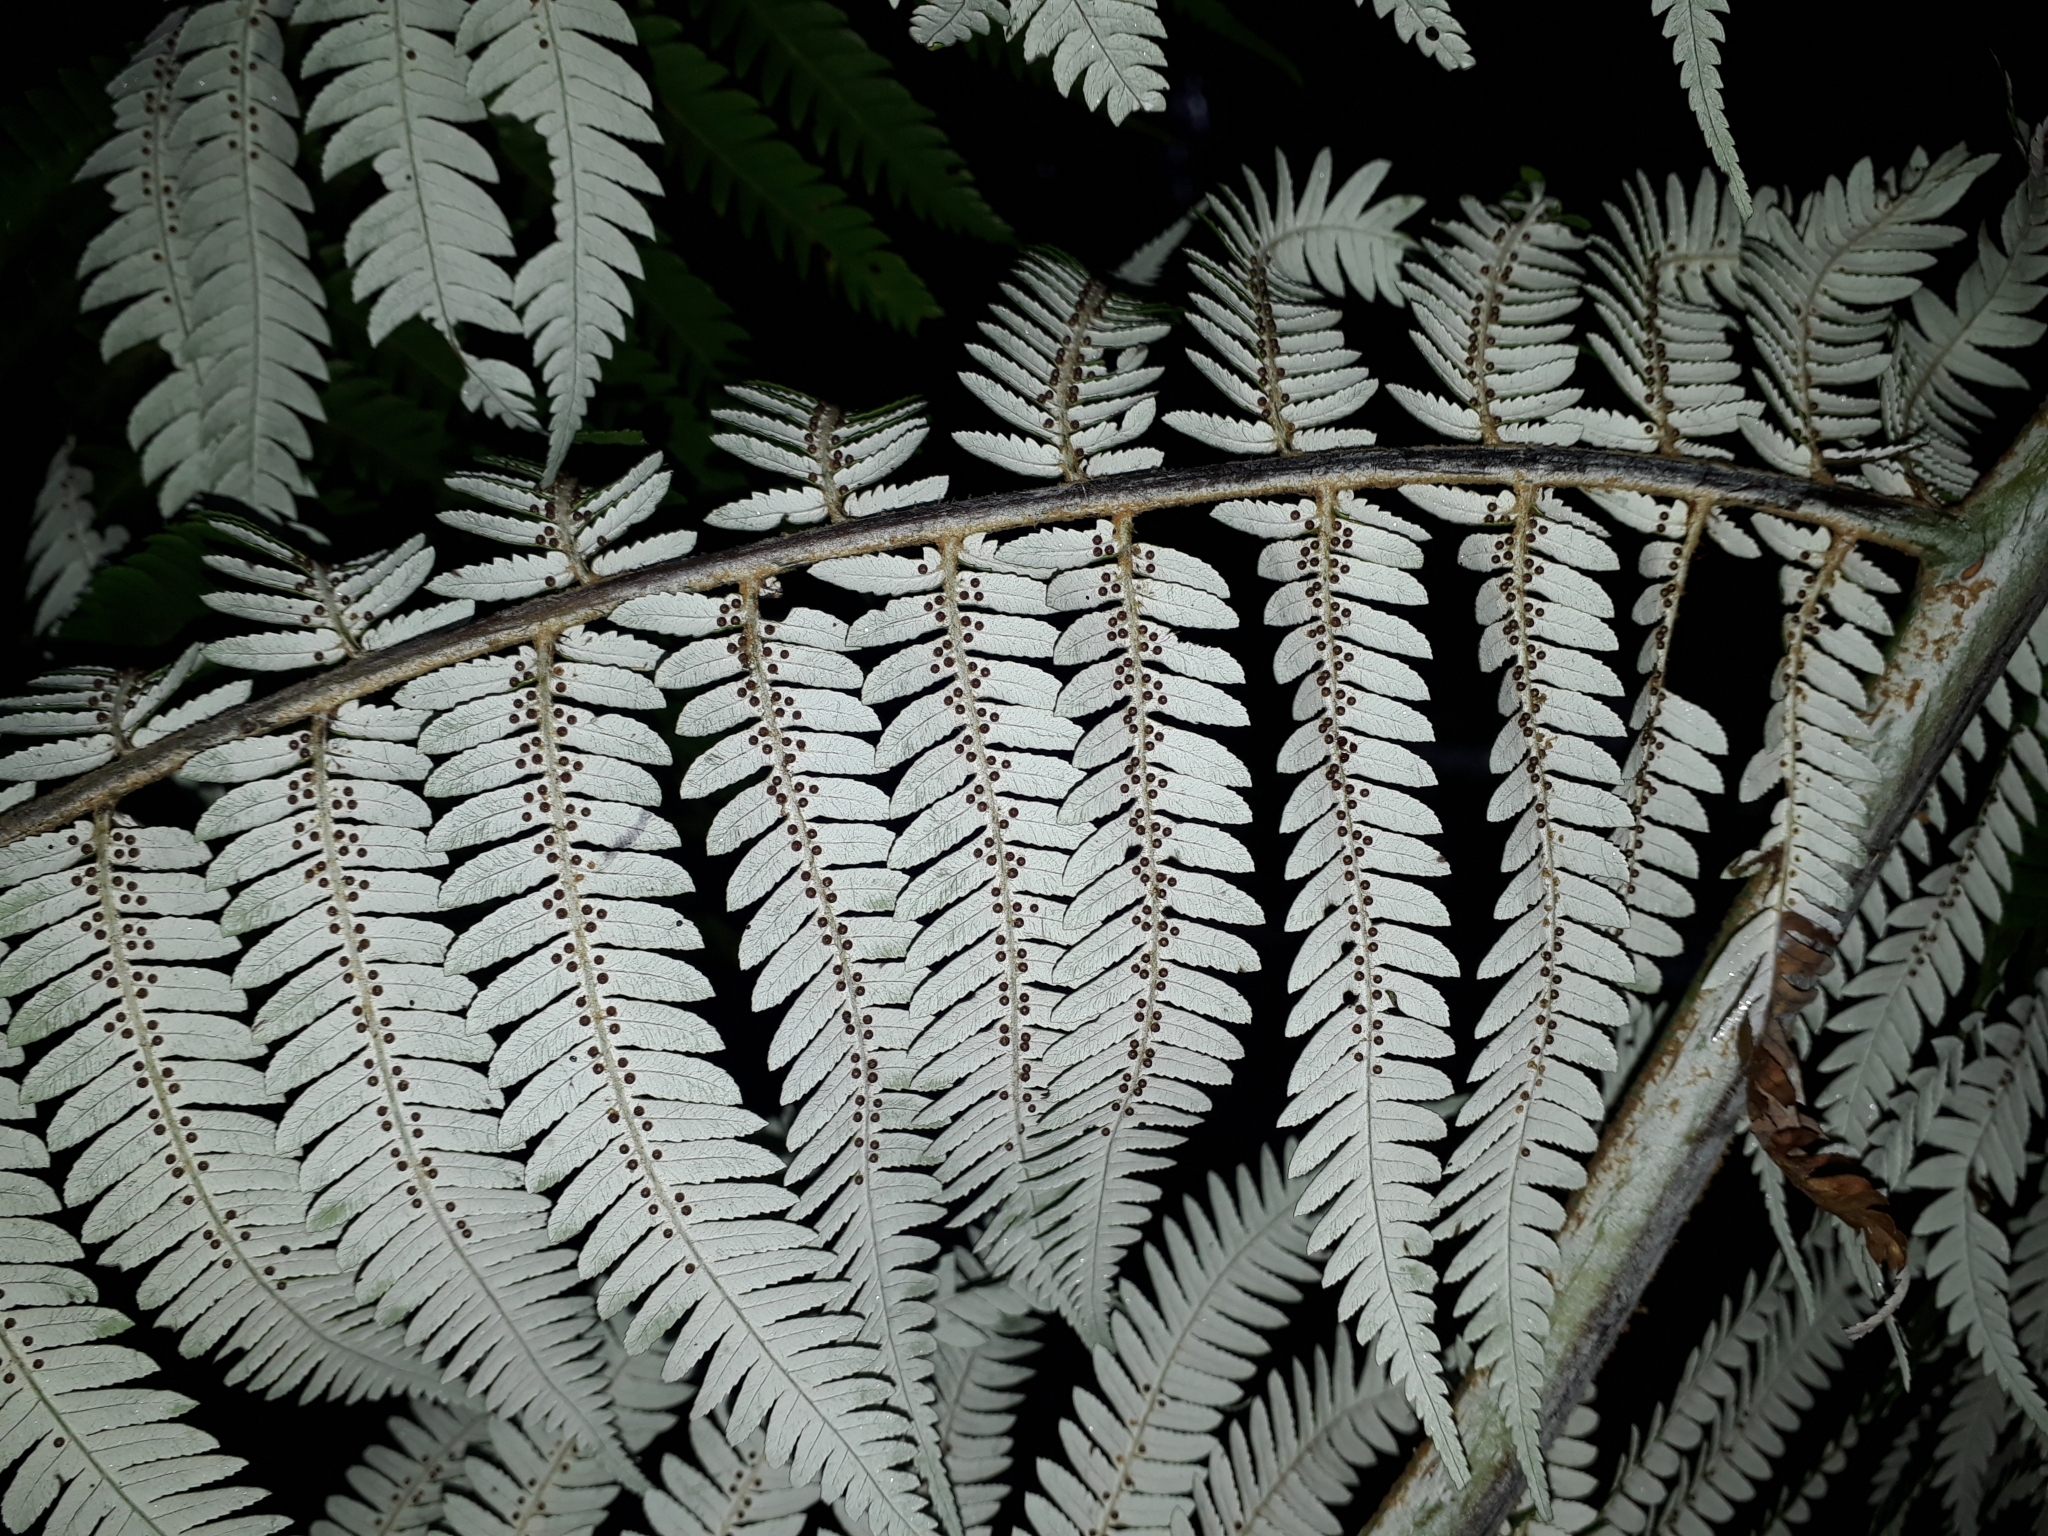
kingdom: Plantae
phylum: Tracheophyta
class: Polypodiopsida
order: Cyatheales
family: Cyatheaceae
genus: Alsophila
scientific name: Alsophila dealbata
